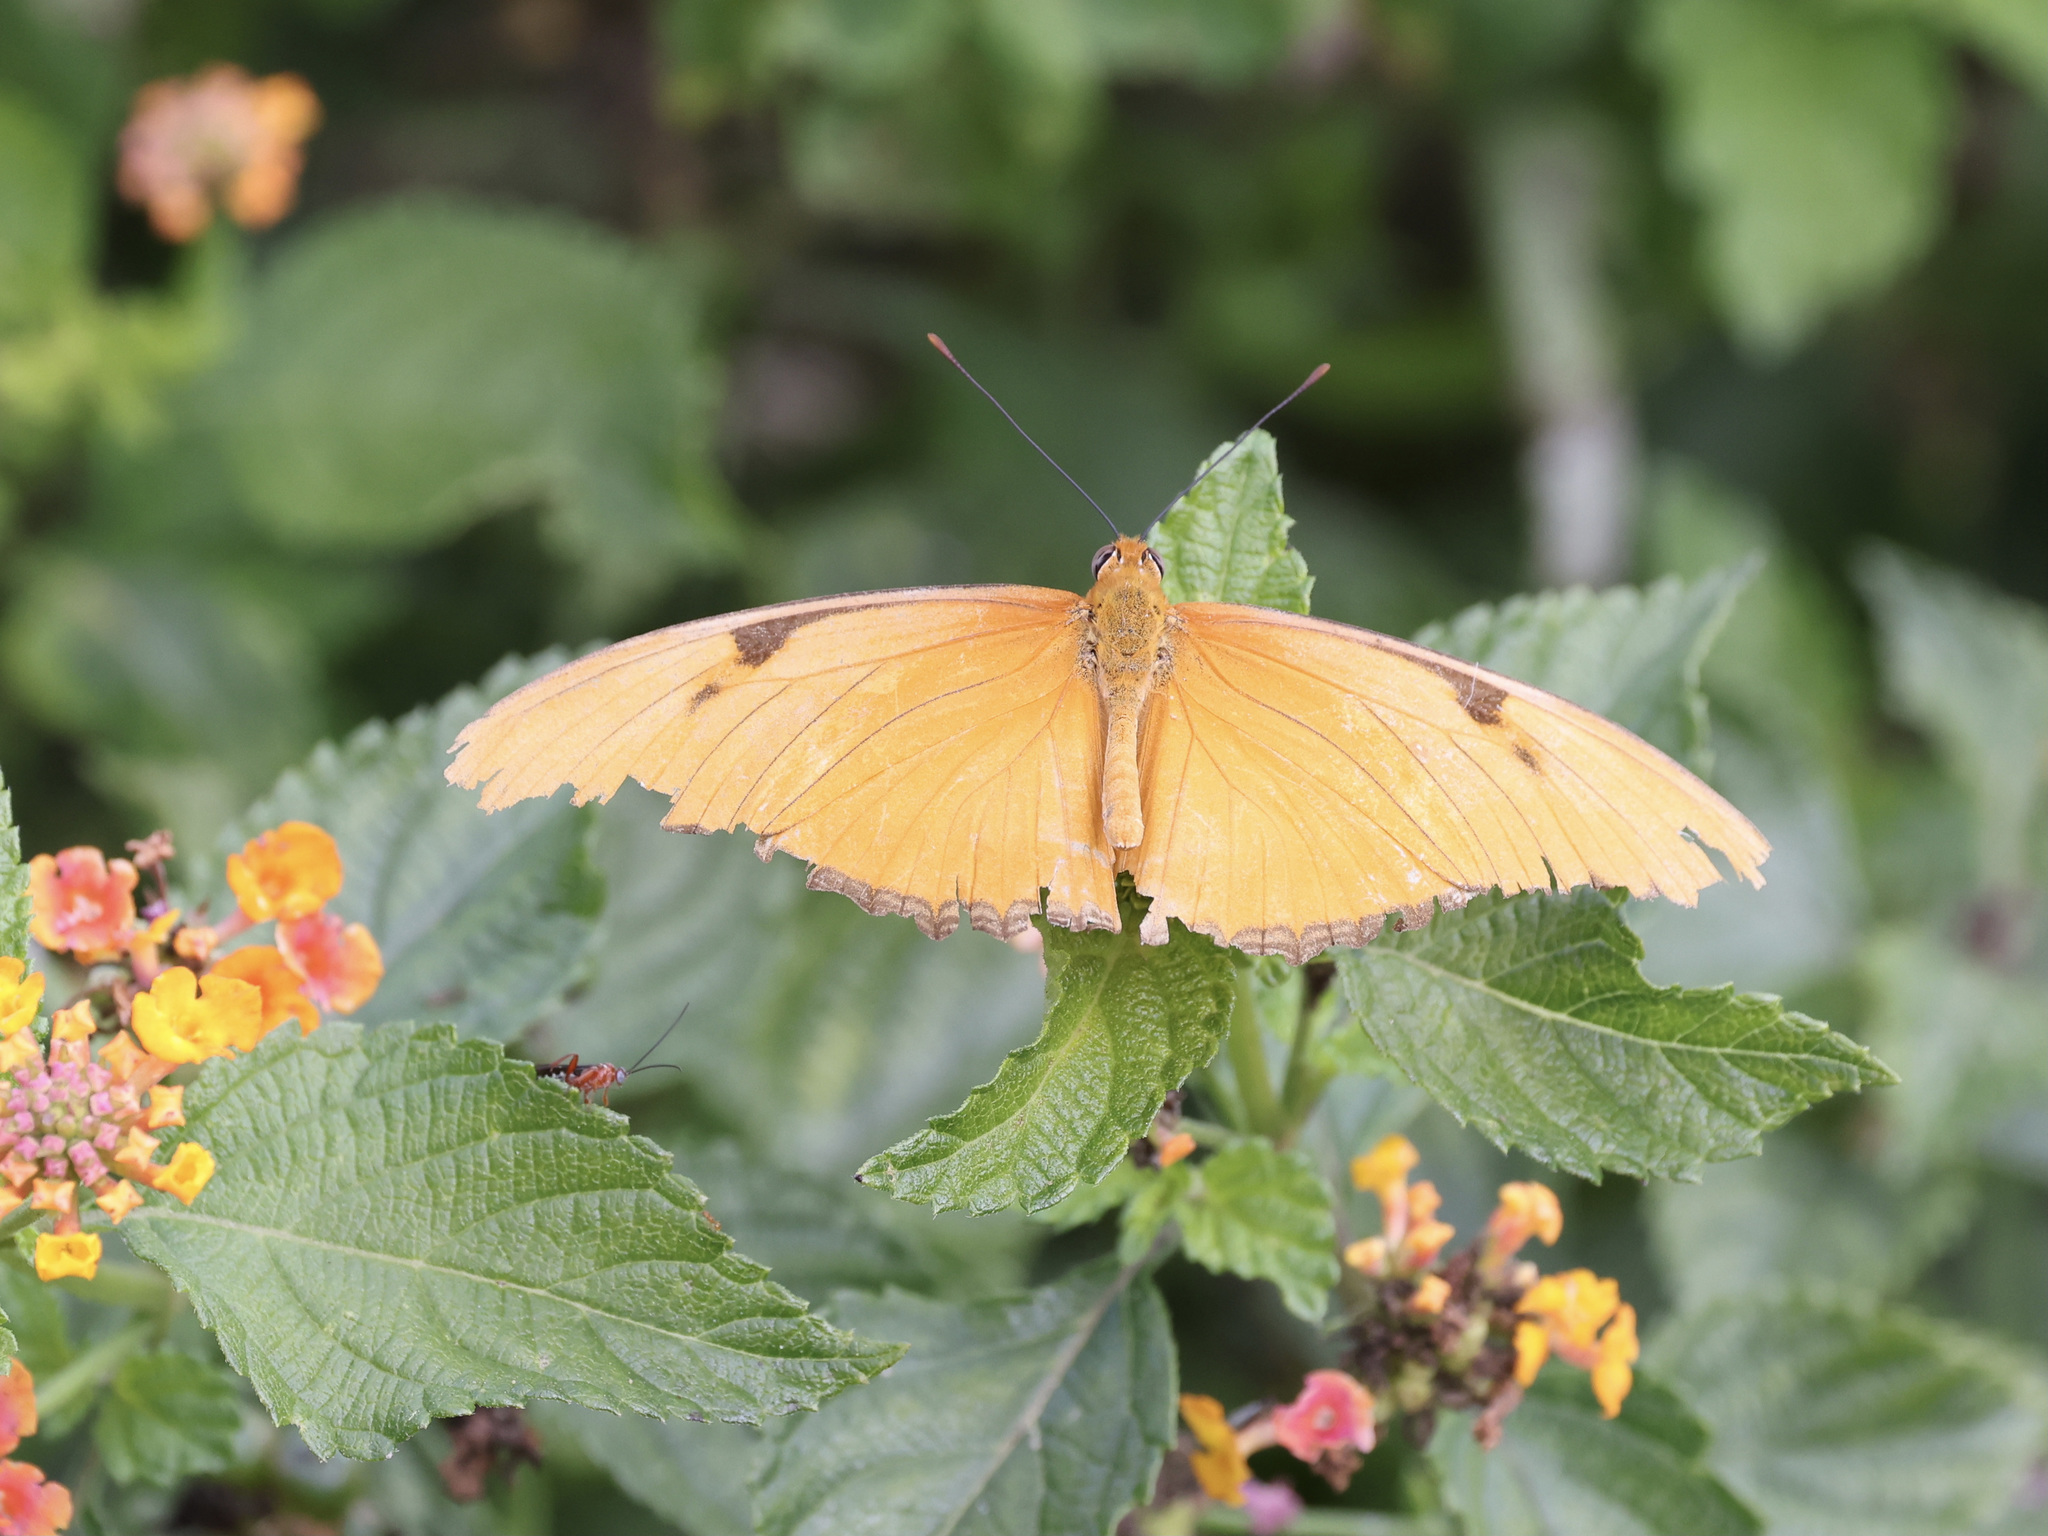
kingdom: Animalia
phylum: Arthropoda
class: Insecta
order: Lepidoptera
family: Nymphalidae
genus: Dryas
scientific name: Dryas iulia
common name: Flambeau
